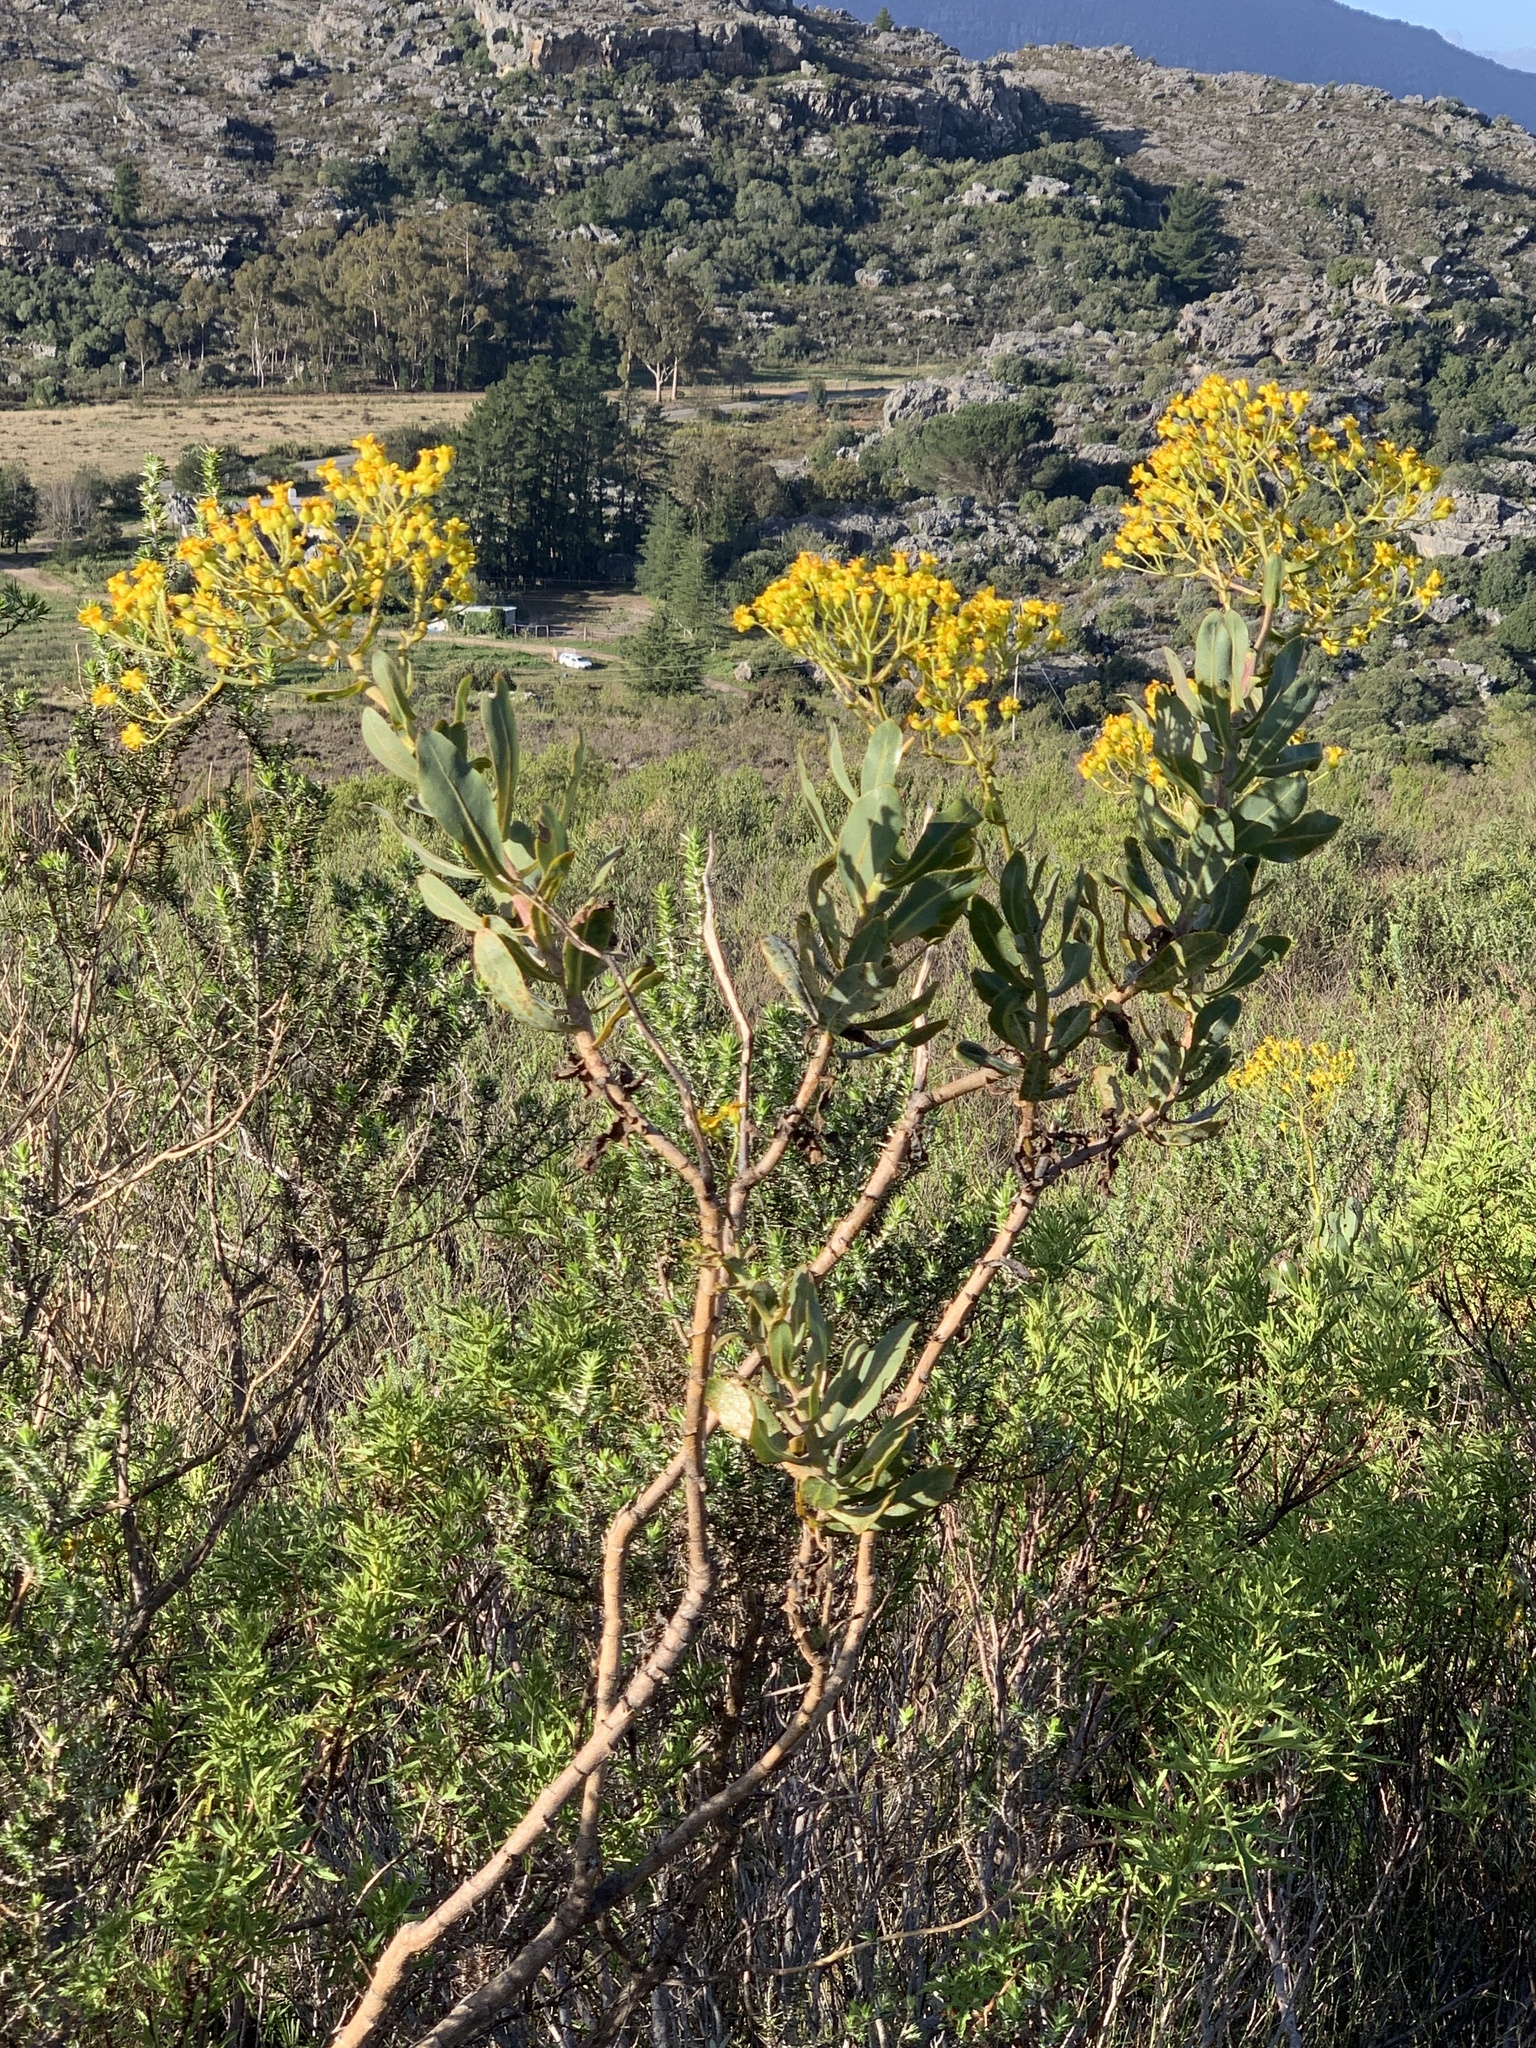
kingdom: Plantae
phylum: Tracheophyta
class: Magnoliopsida
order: Asterales
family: Asteraceae
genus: Othonna
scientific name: Othonna parviflora
